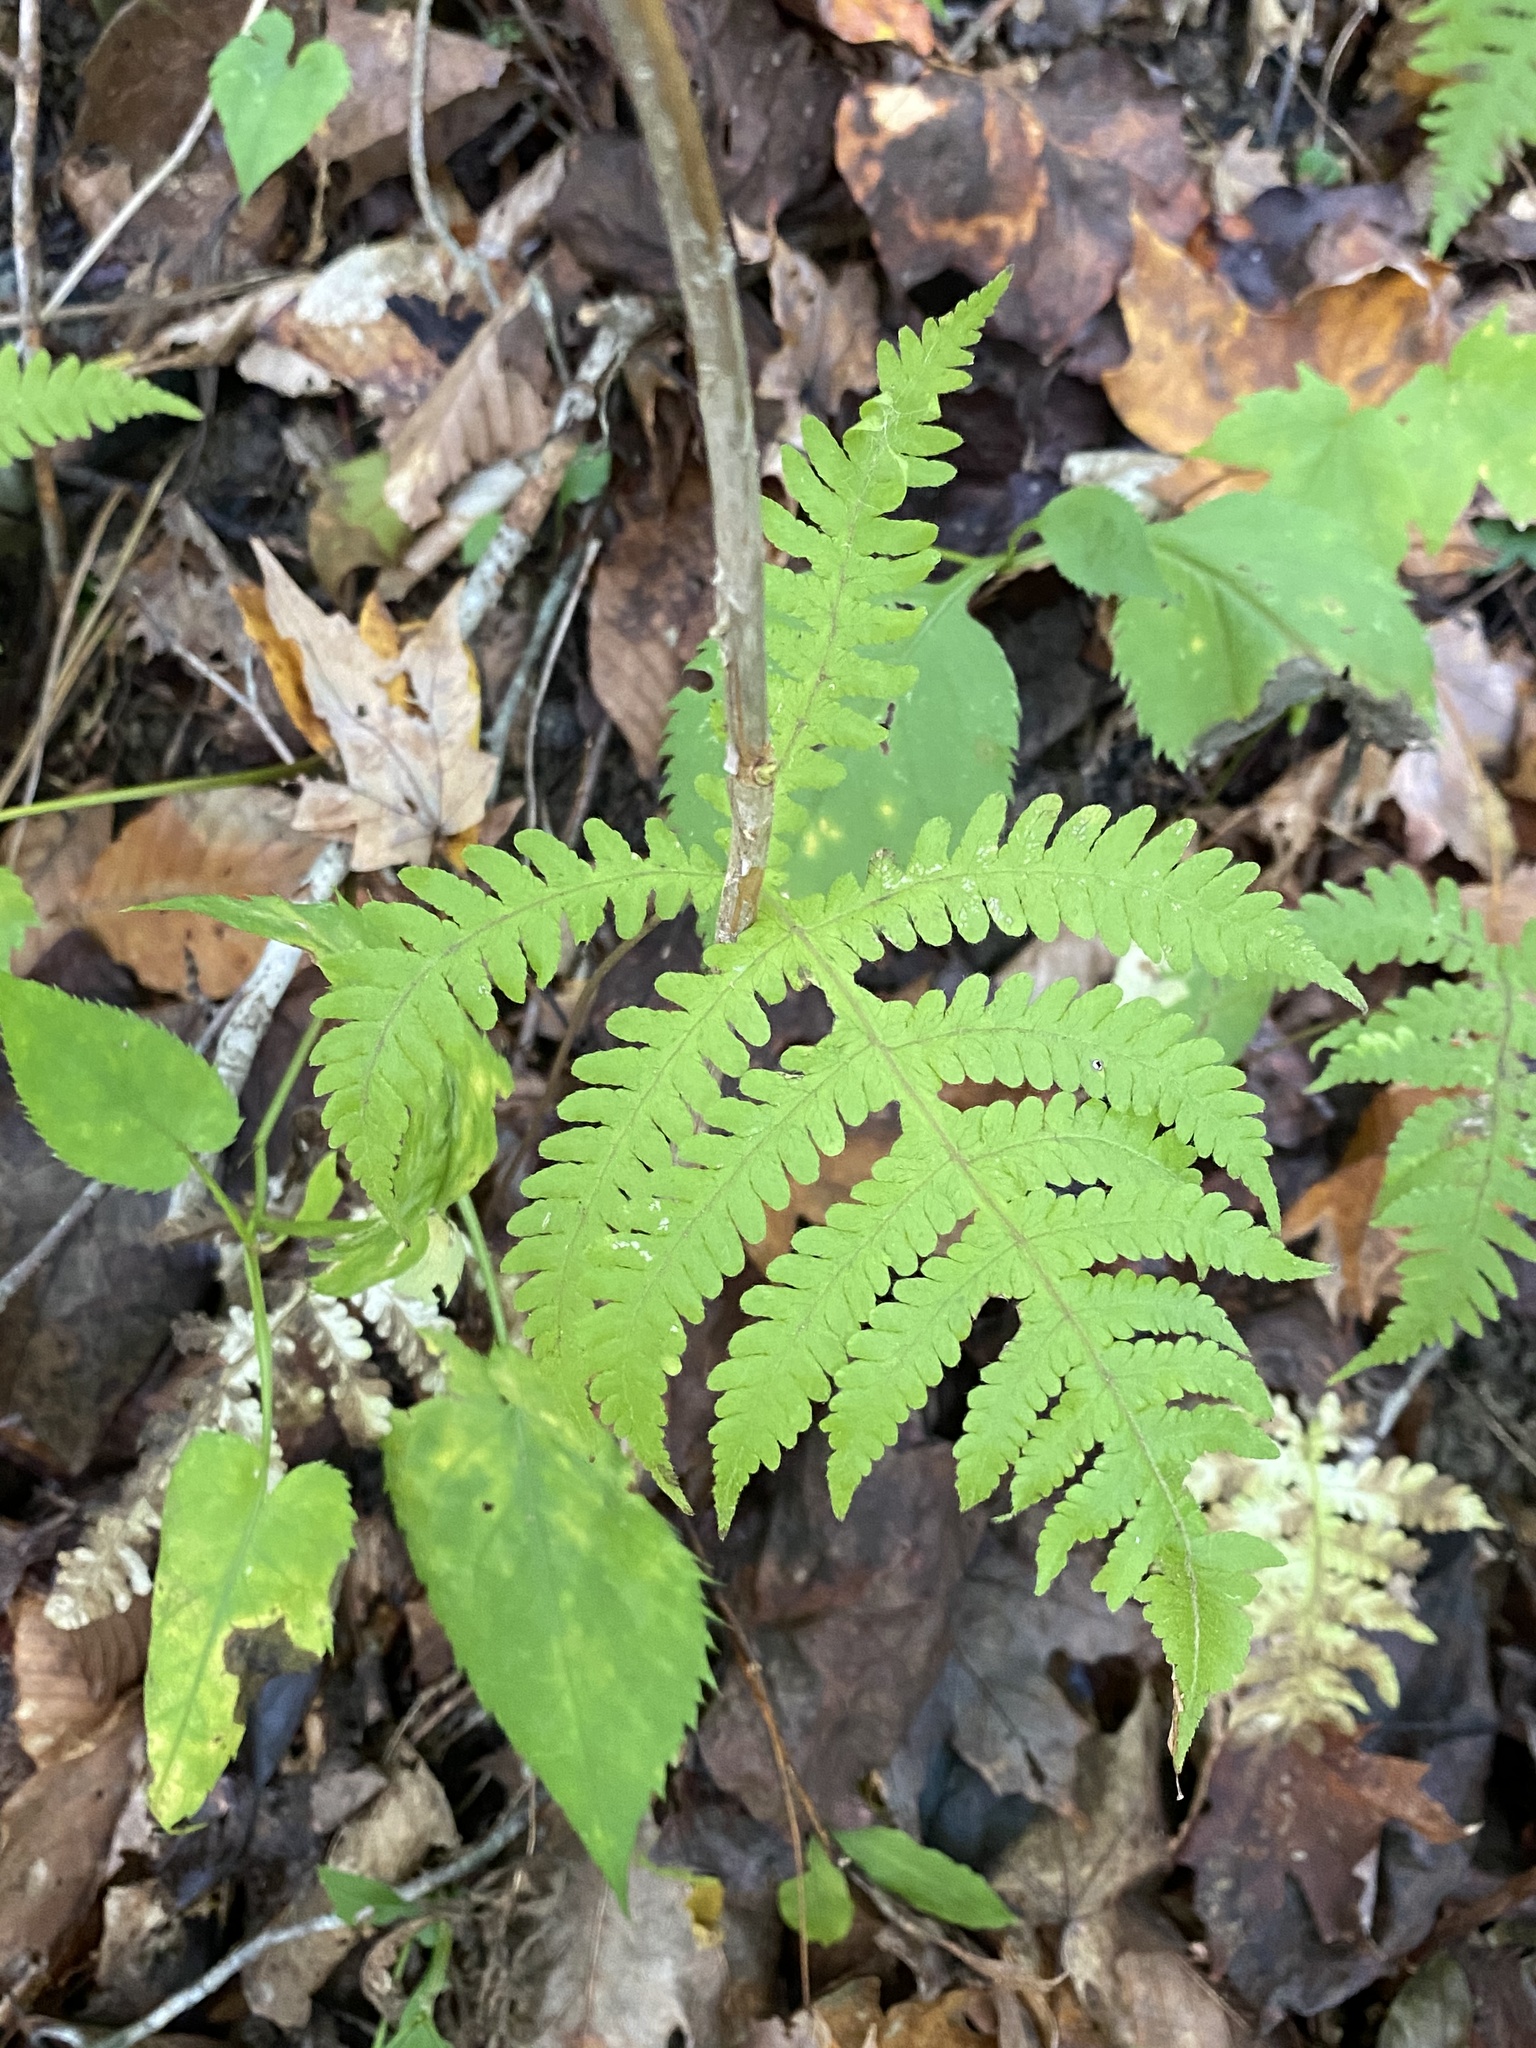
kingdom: Plantae
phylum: Tracheophyta
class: Polypodiopsida
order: Polypodiales
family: Thelypteridaceae
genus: Phegopteris
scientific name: Phegopteris hexagonoptera
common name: Broad beech fern
